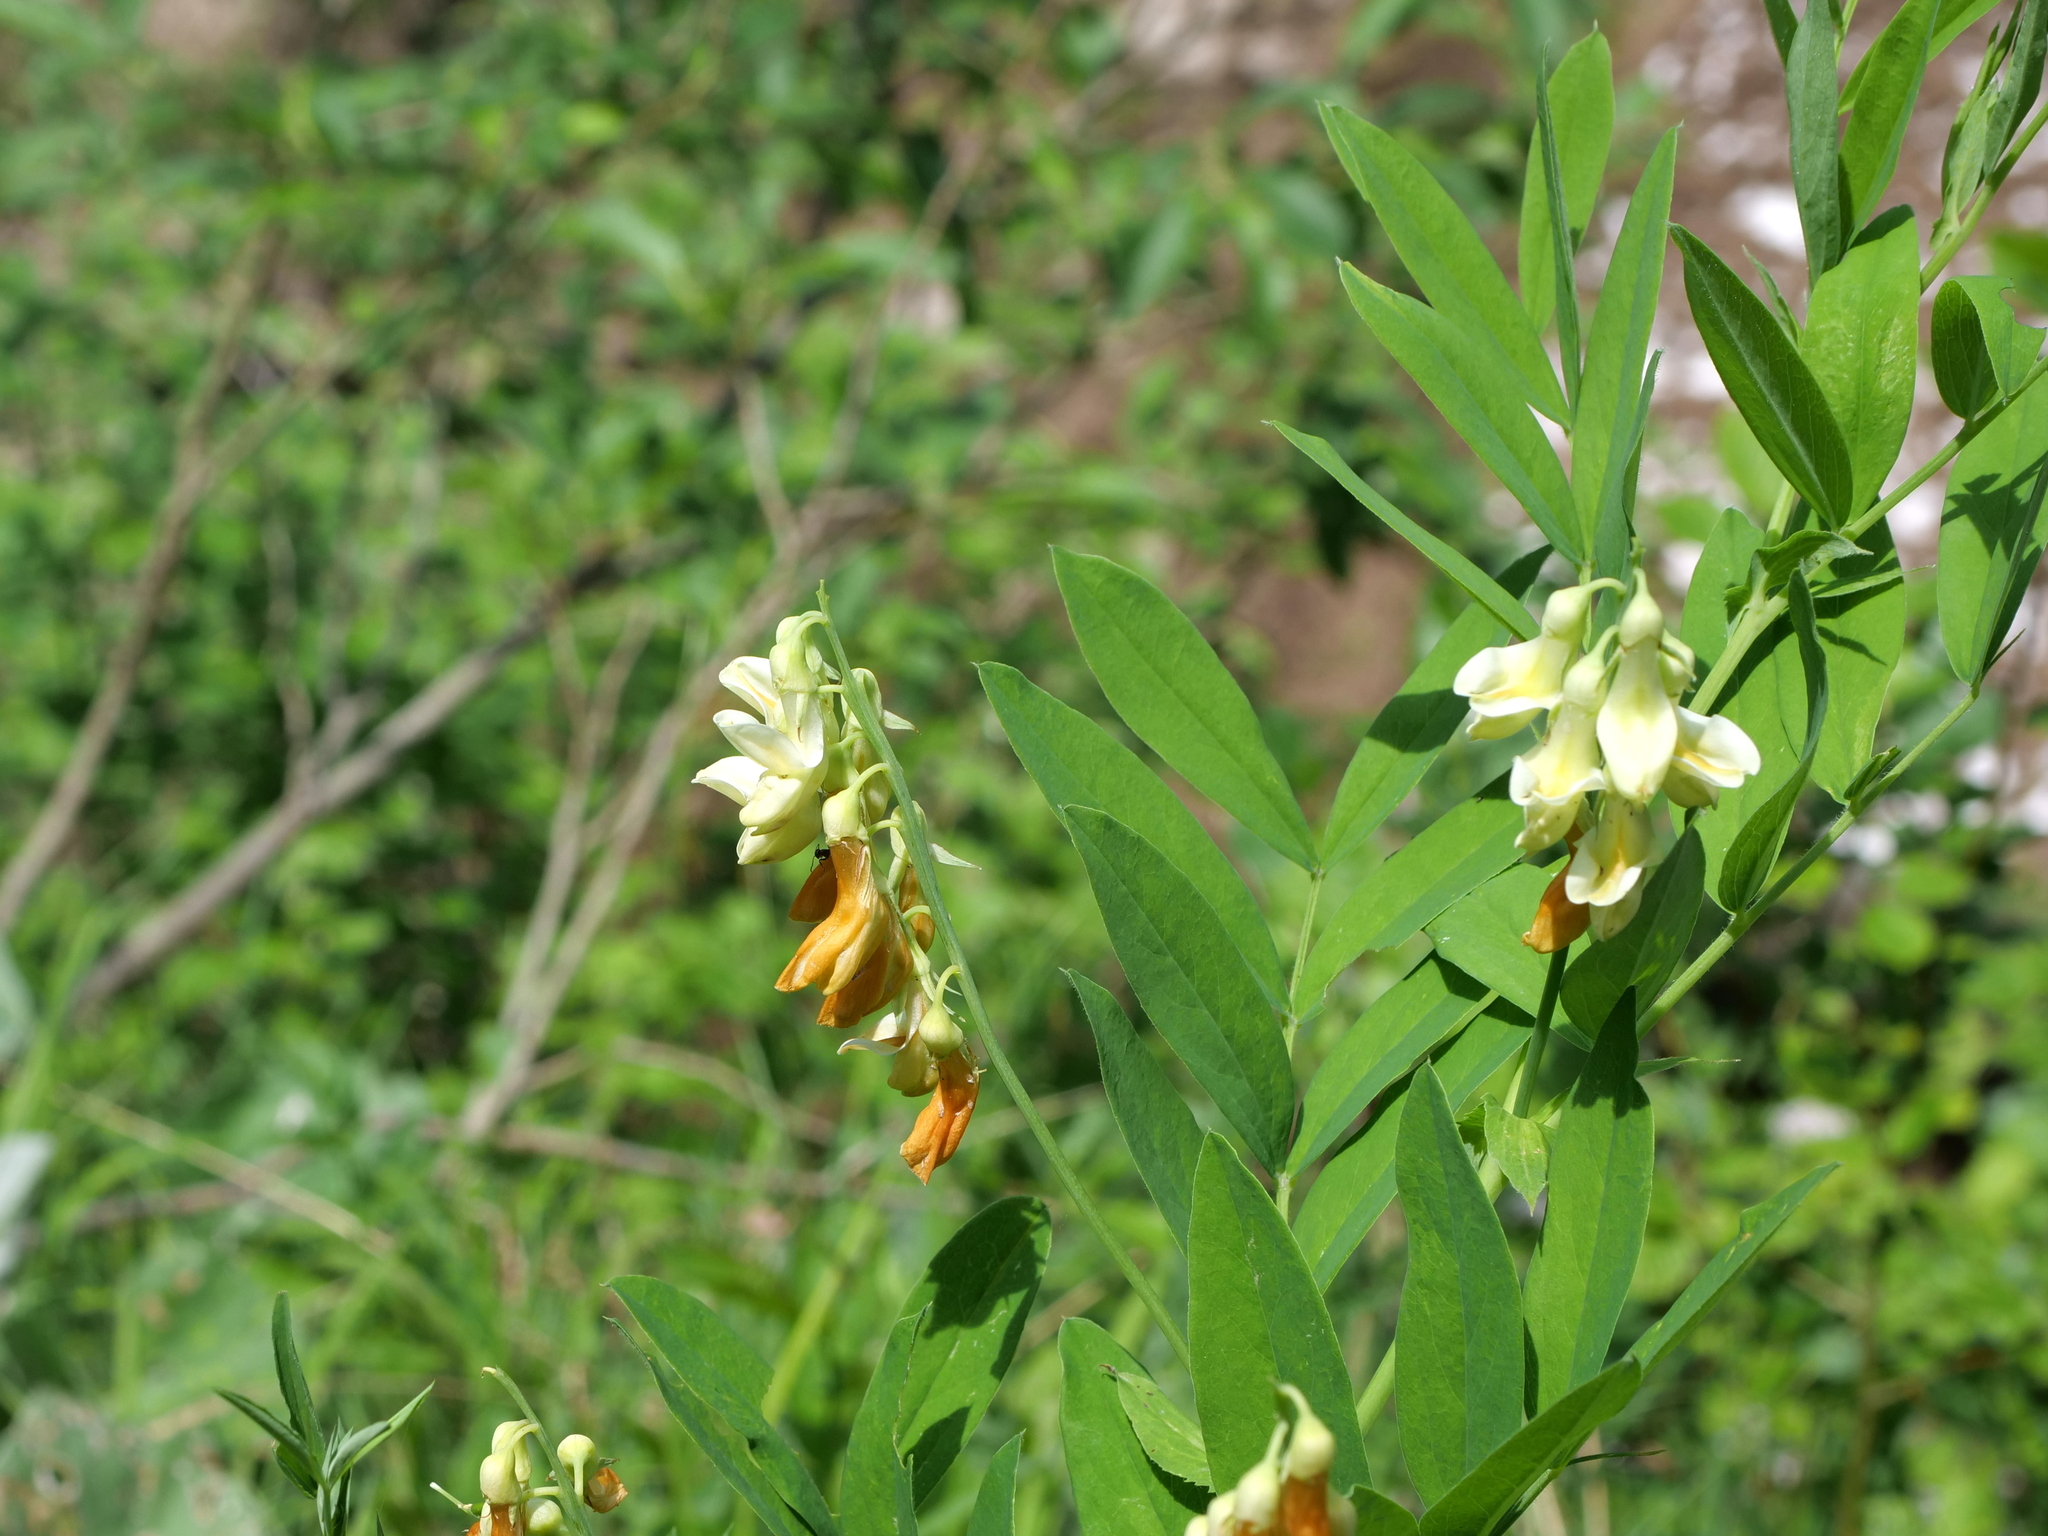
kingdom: Plantae
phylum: Tracheophyta
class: Magnoliopsida
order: Fabales
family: Fabaceae
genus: Lathyrus
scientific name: Lathyrus laevigatus
